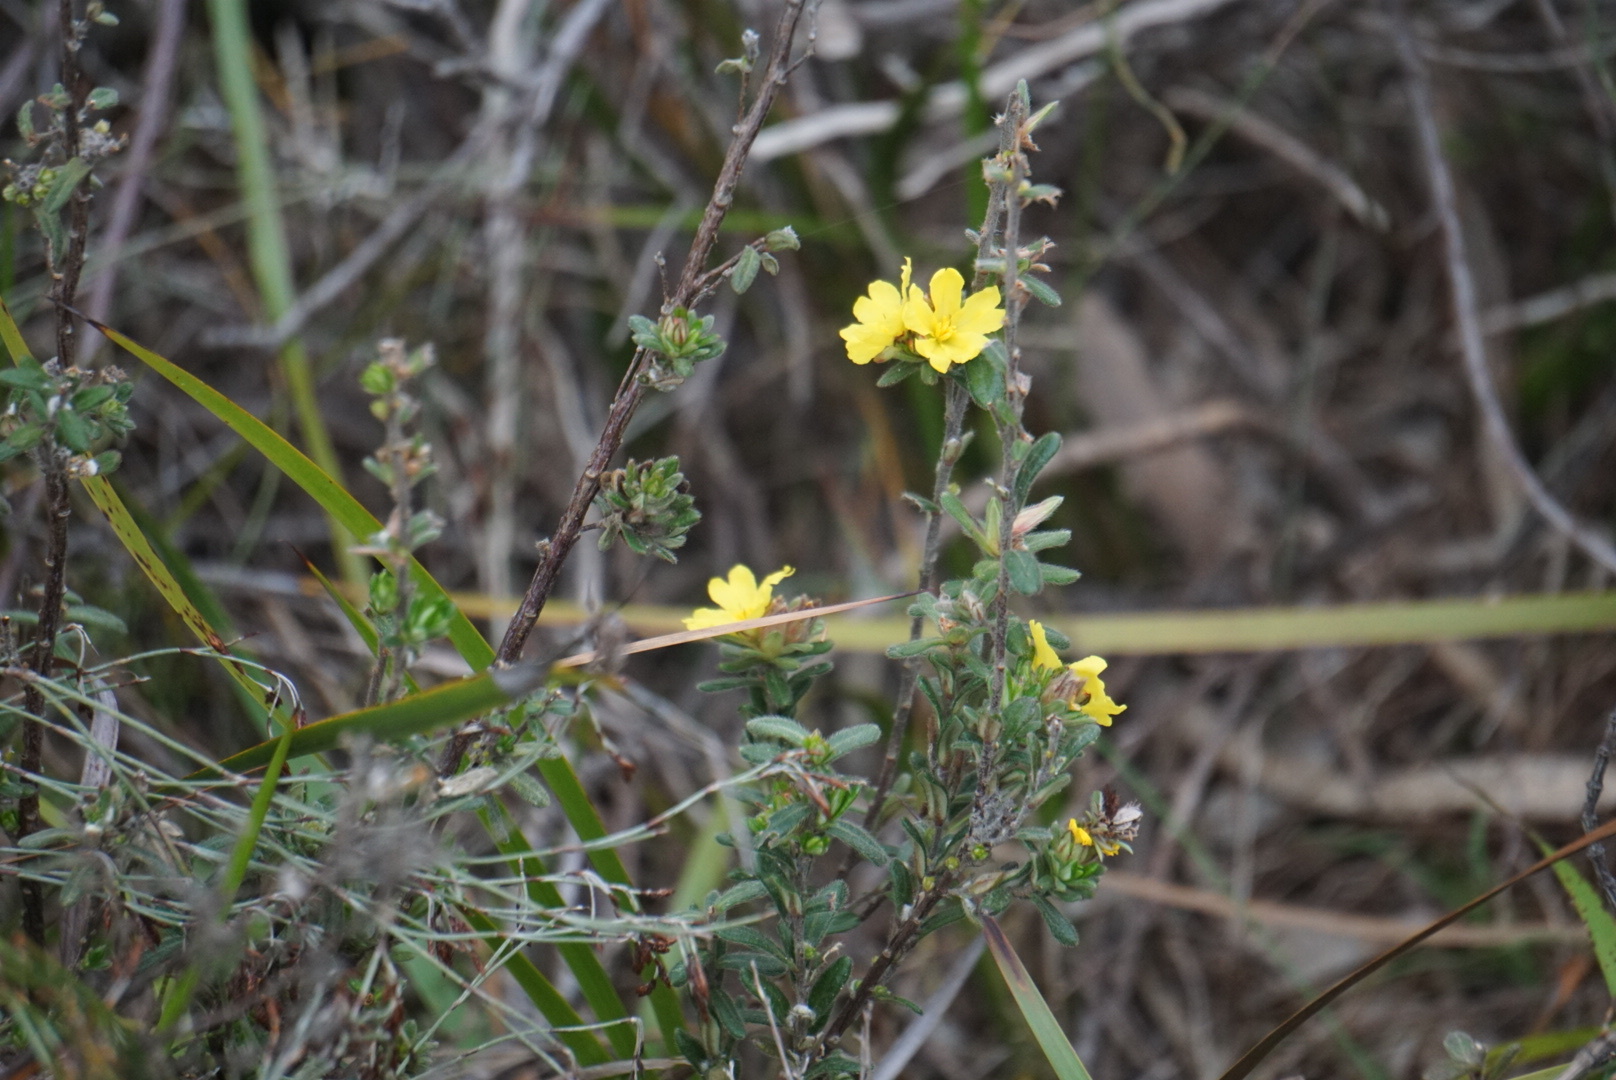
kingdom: Plantae
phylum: Tracheophyta
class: Magnoliopsida
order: Dilleniales
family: Dilleniaceae
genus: Hibbertia
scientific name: Hibbertia sericea
